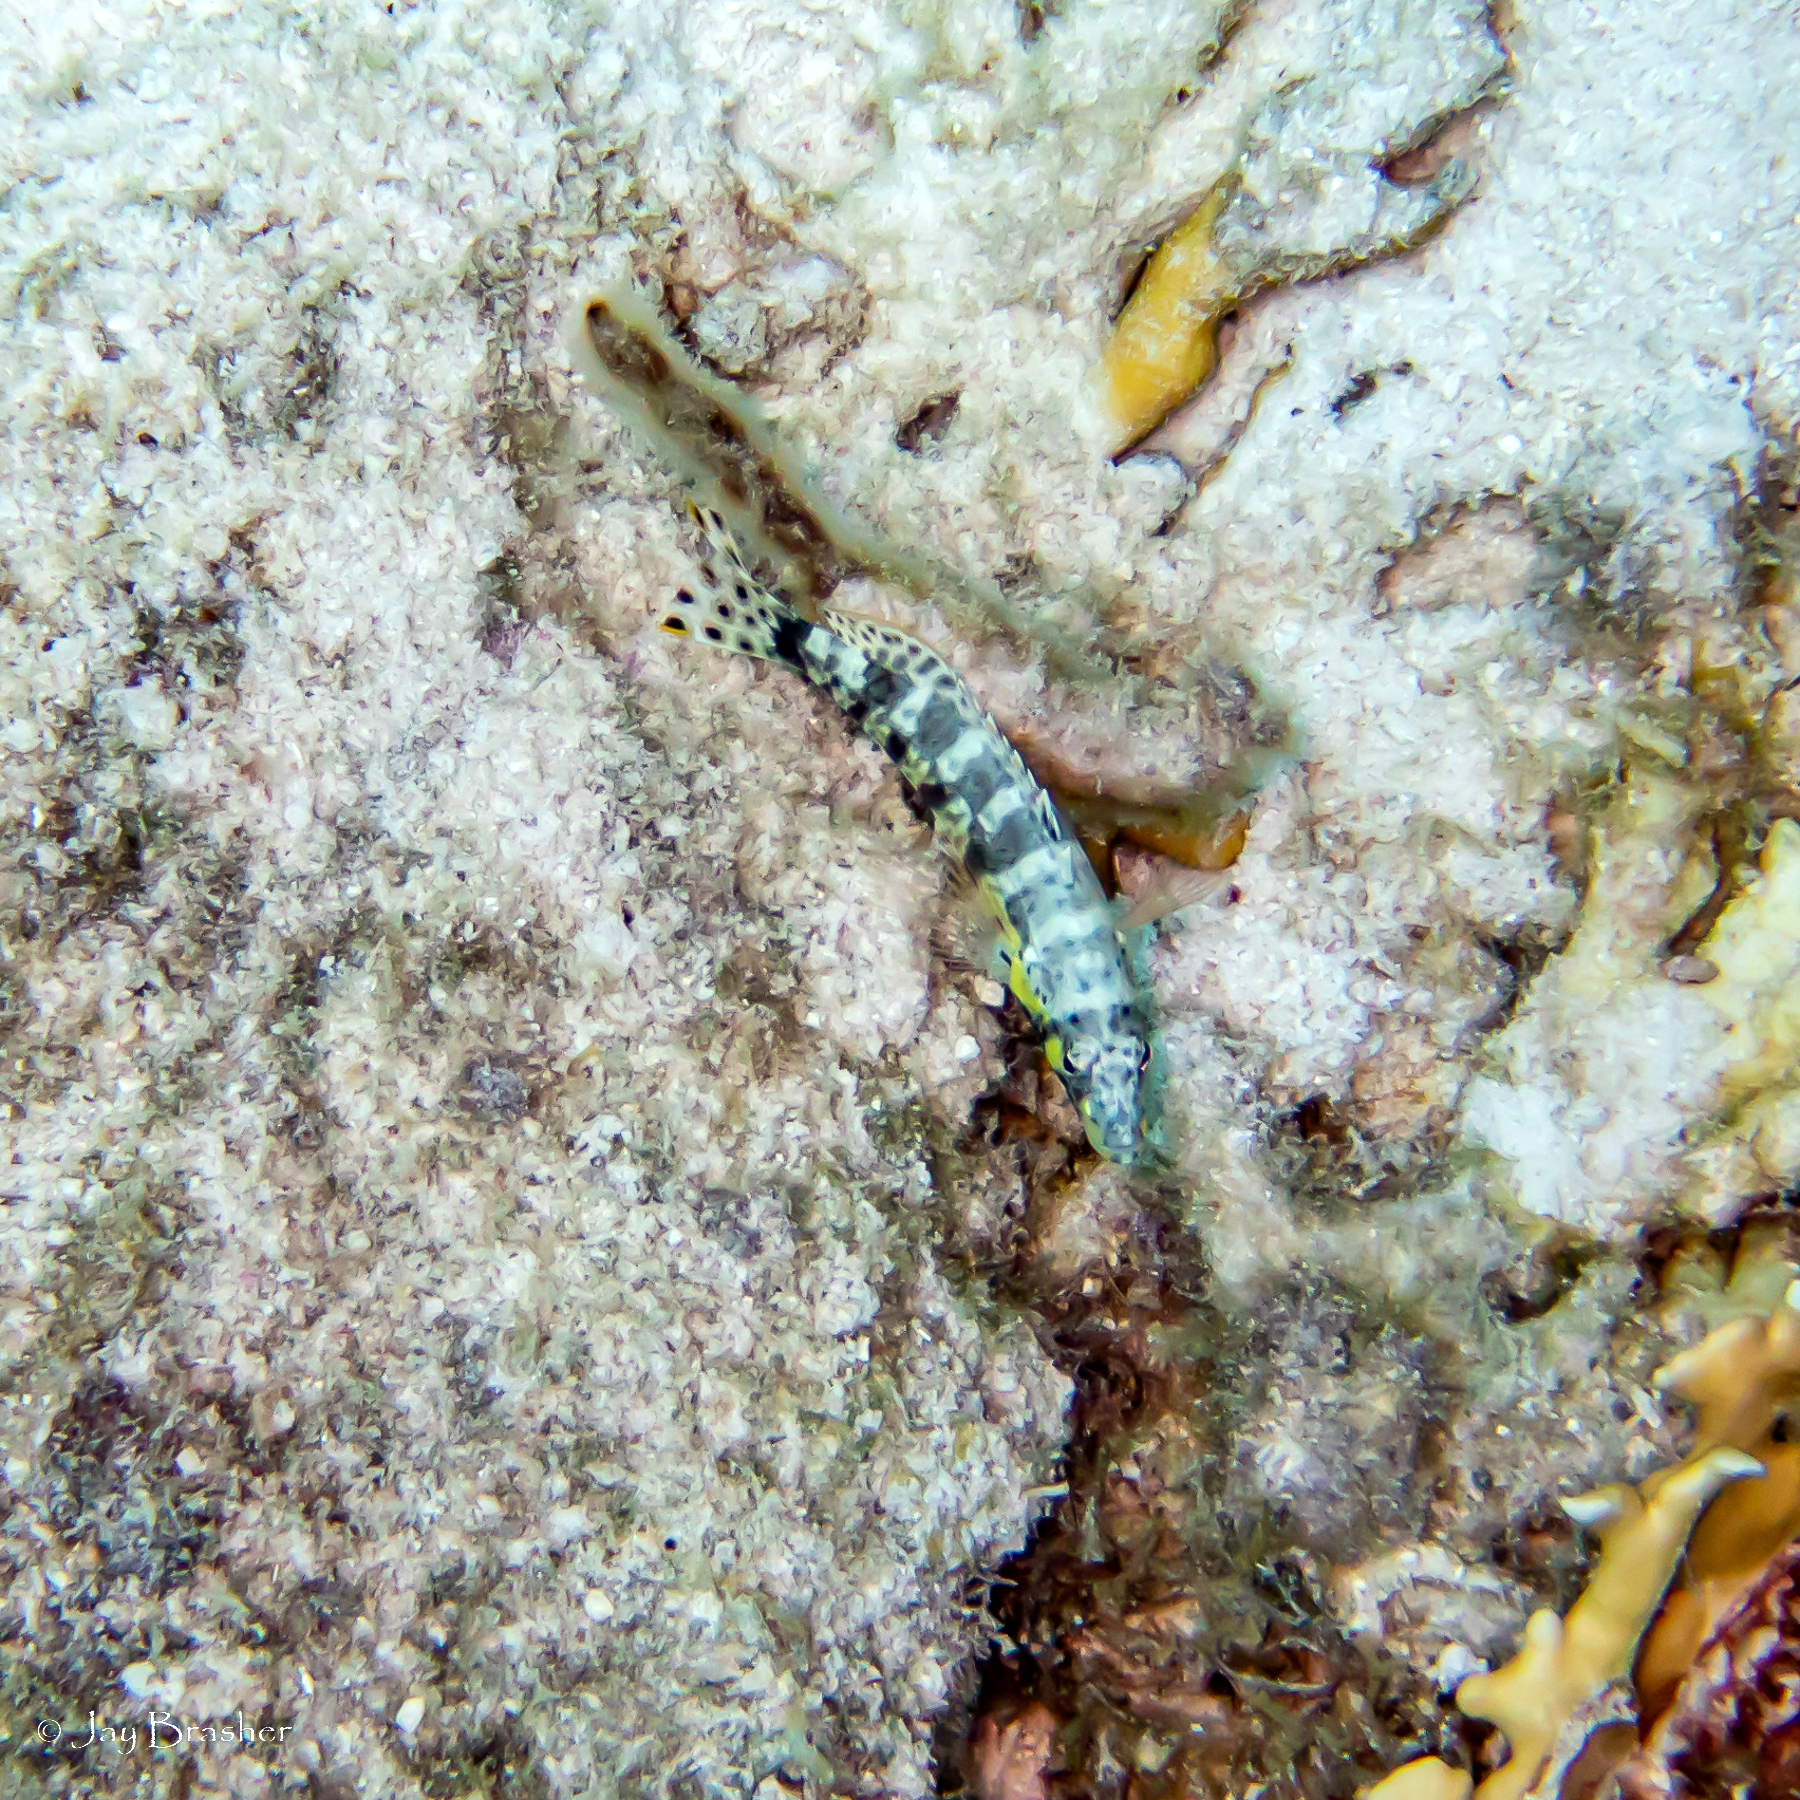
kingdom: Animalia
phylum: Chordata
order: Perciformes
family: Serranidae
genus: Serranus
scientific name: Serranus tigrinus
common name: Harlequin bass
